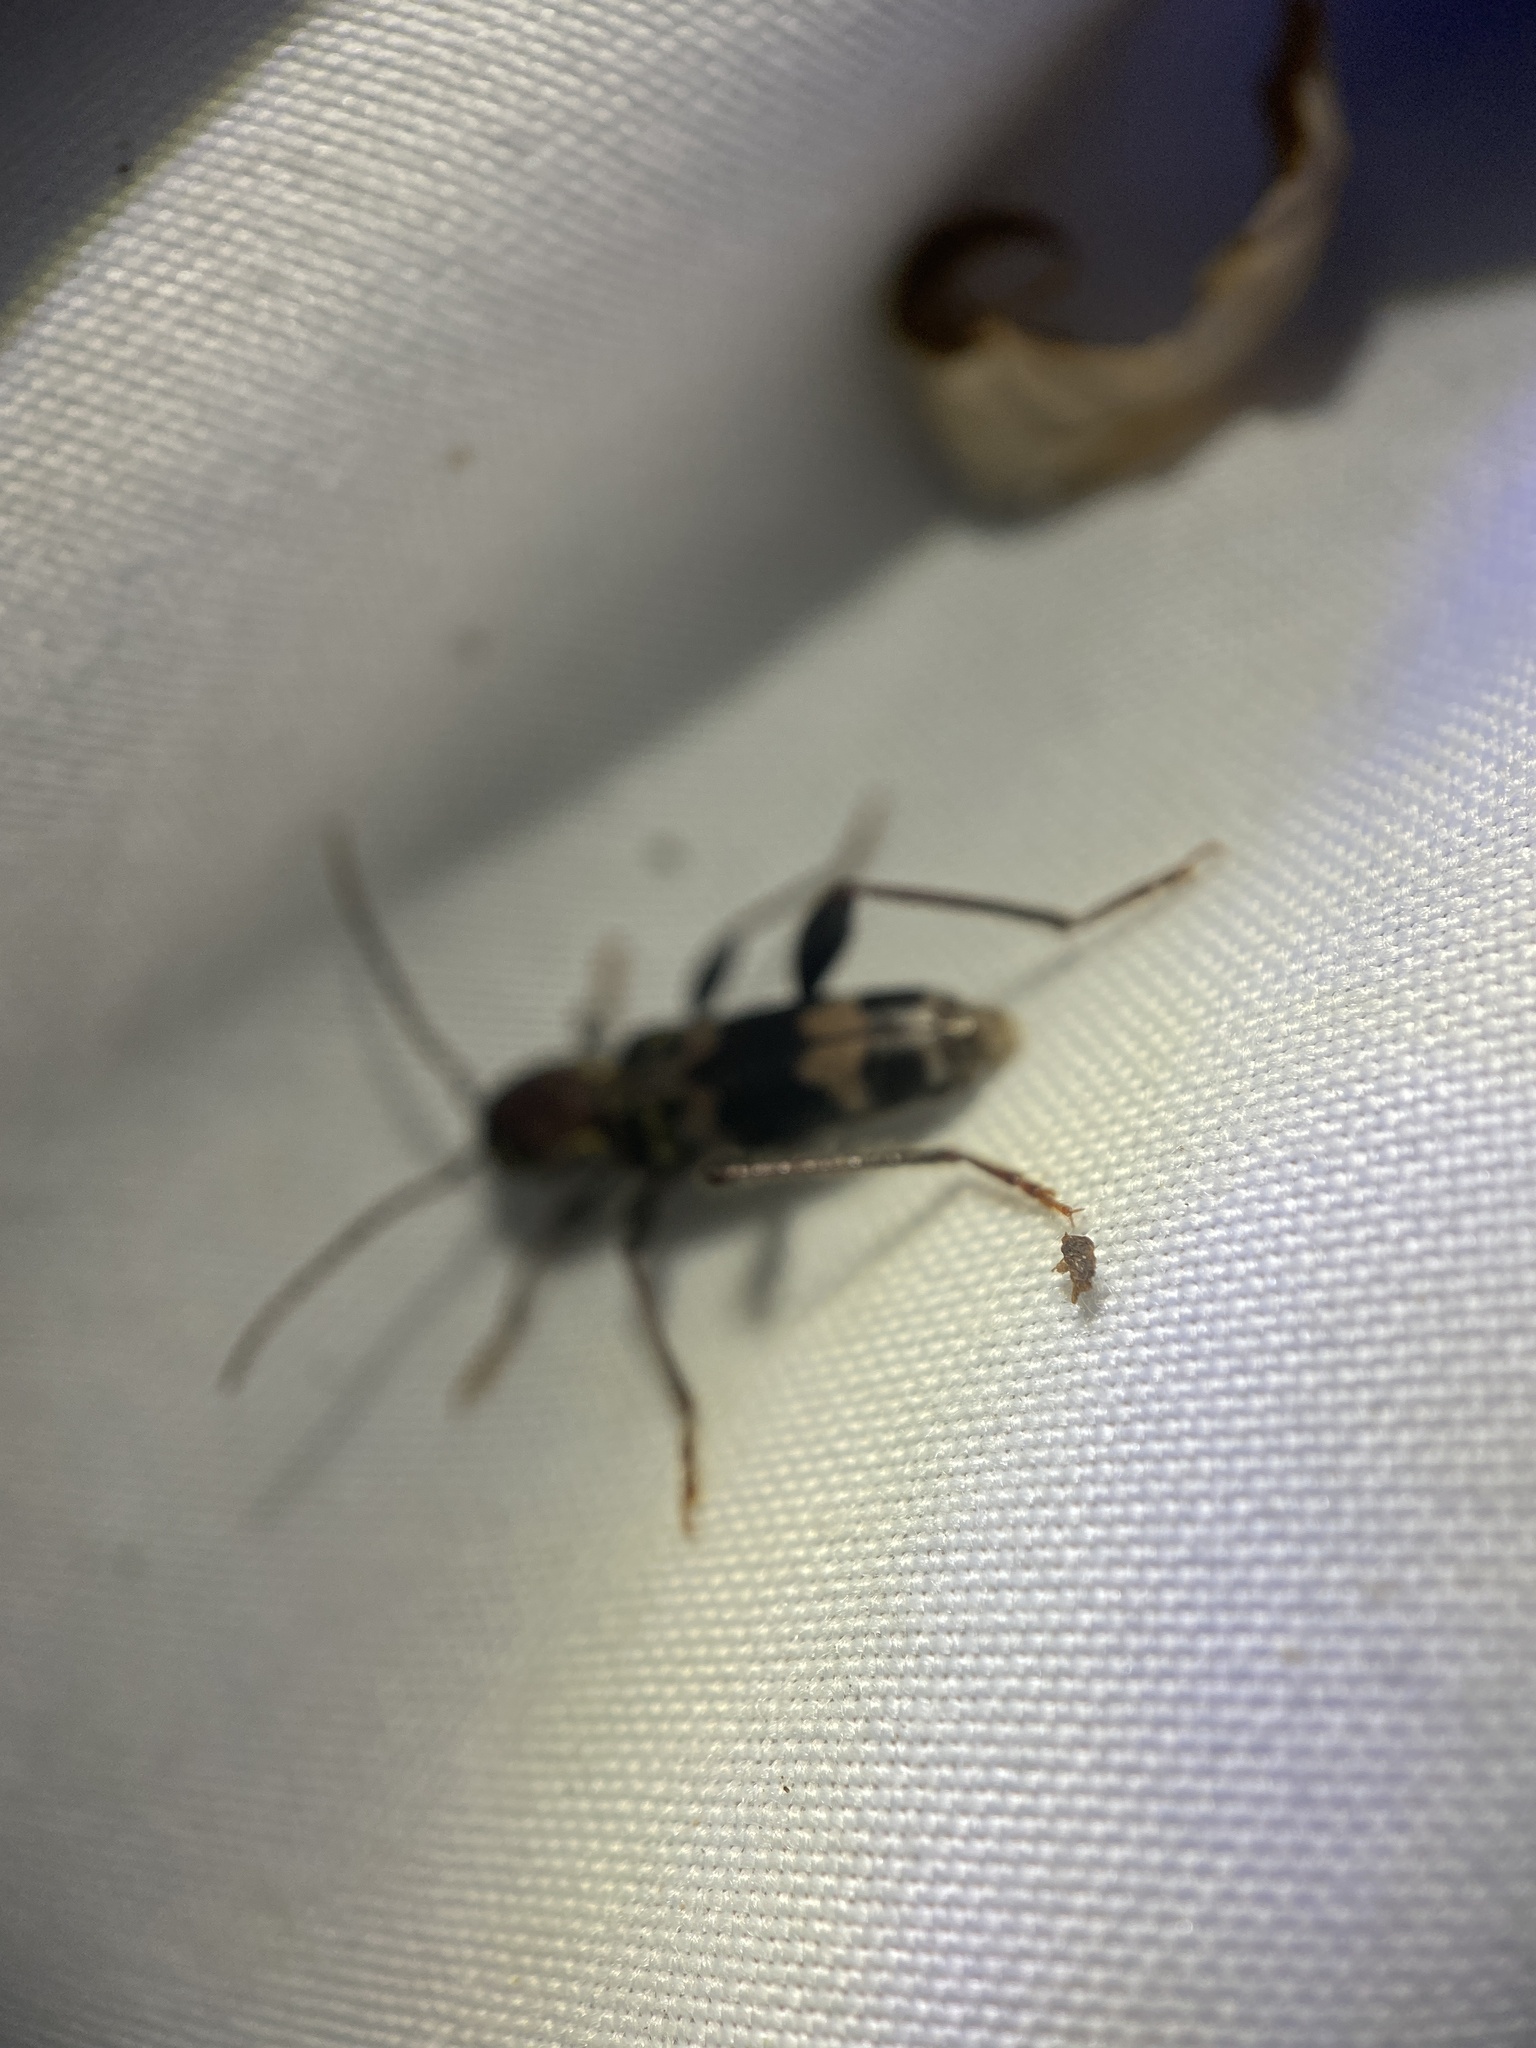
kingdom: Animalia
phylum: Arthropoda
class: Insecta
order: Coleoptera
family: Cerambycidae
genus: Xylotrechus
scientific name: Xylotrechus colonus
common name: Long-horned beetle
